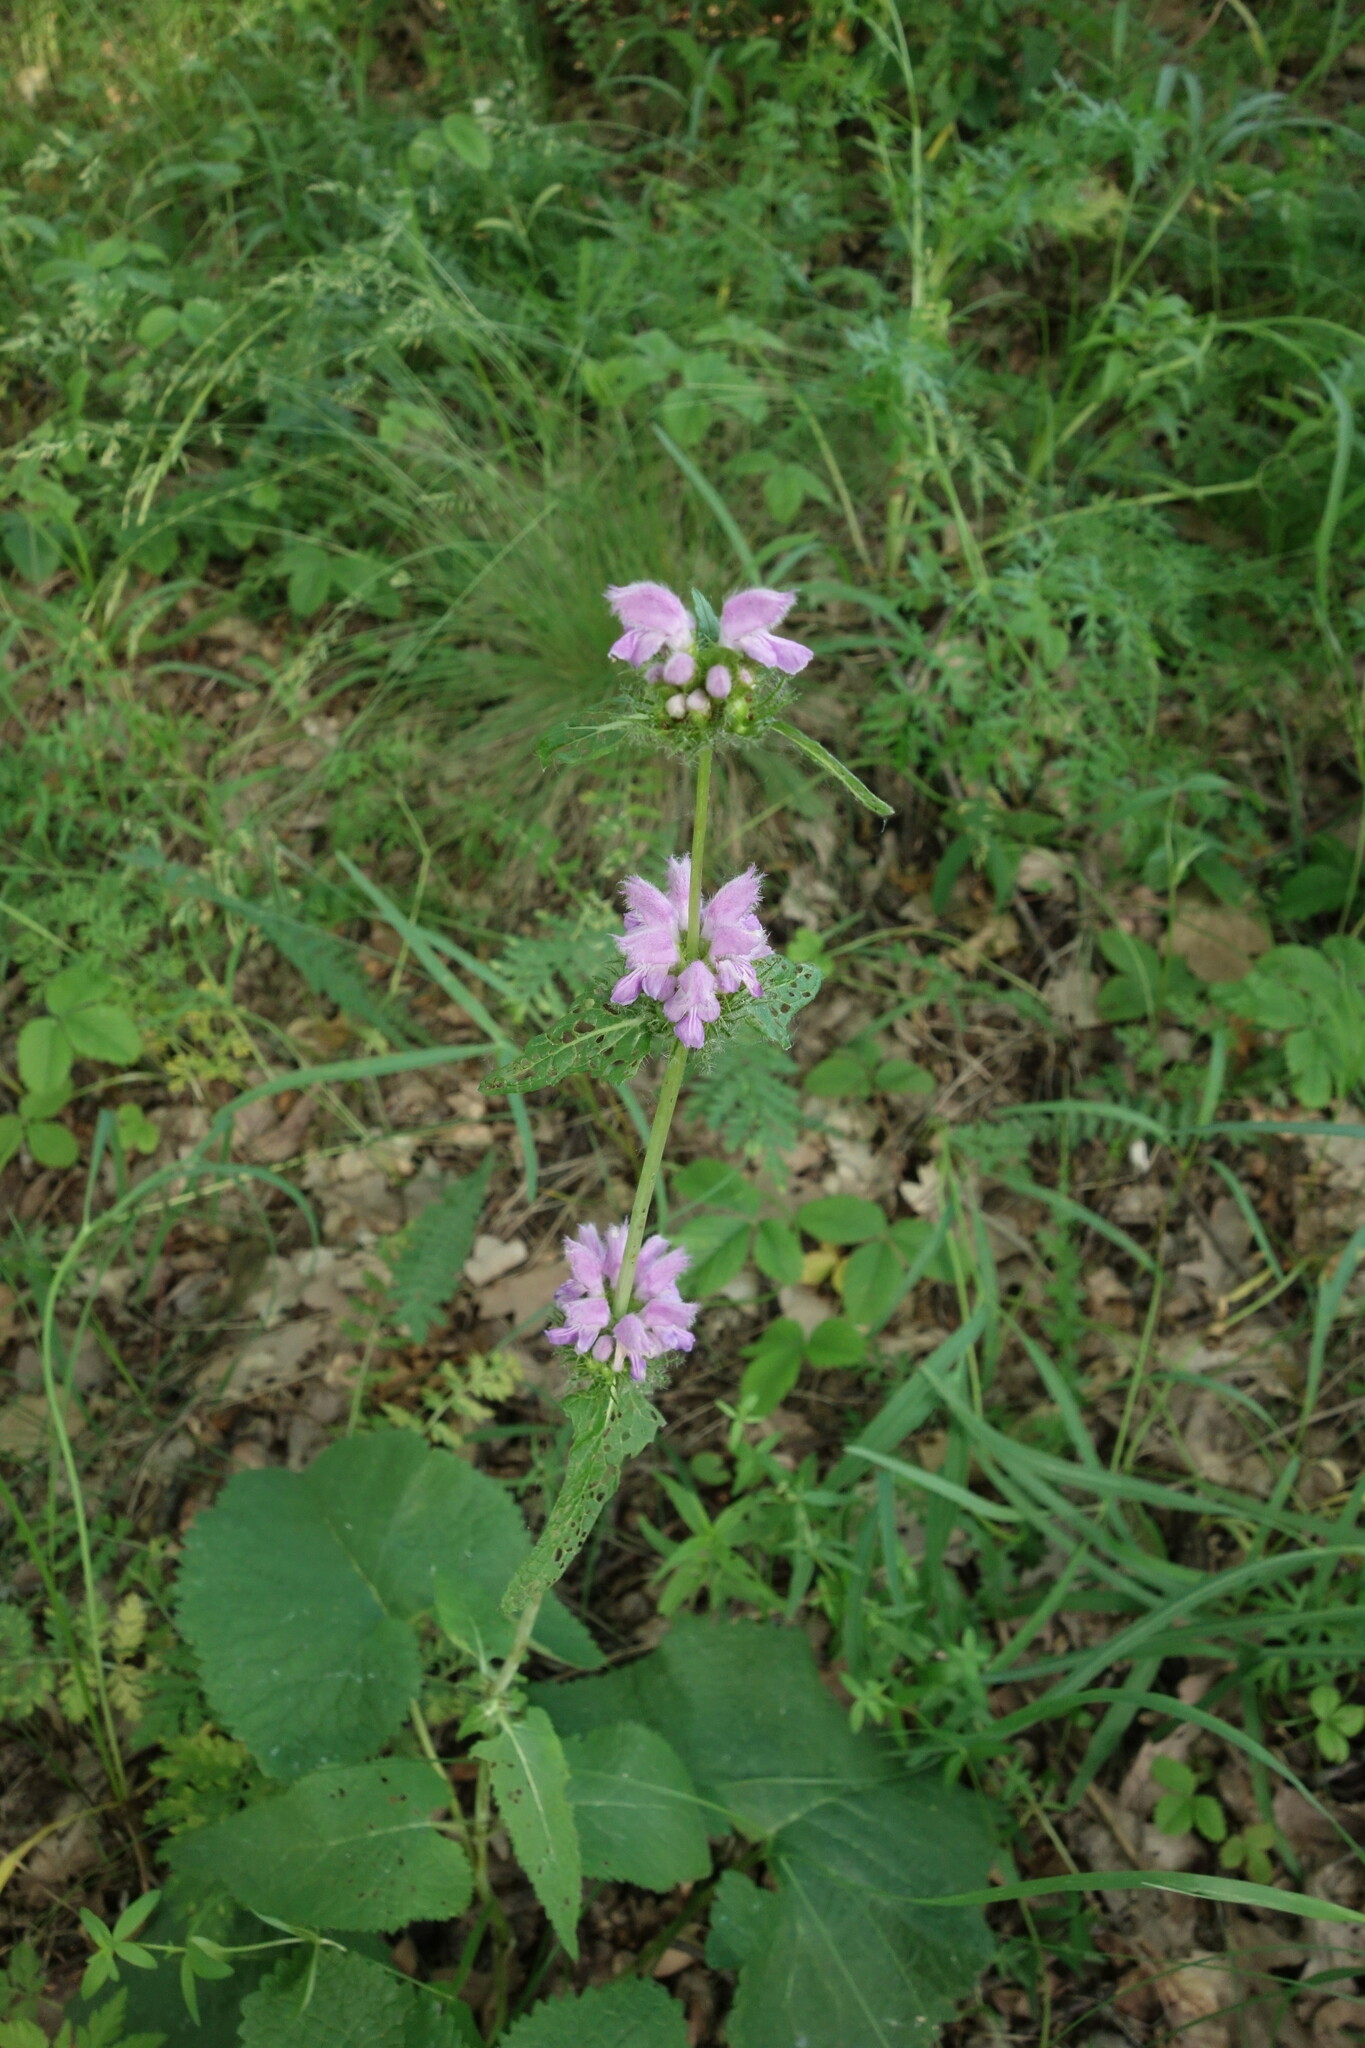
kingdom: Plantae
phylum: Tracheophyta
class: Magnoliopsida
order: Lamiales
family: Lamiaceae
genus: Phlomoides
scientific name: Phlomoides tuberosa
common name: Tuberous jerusalem sage
